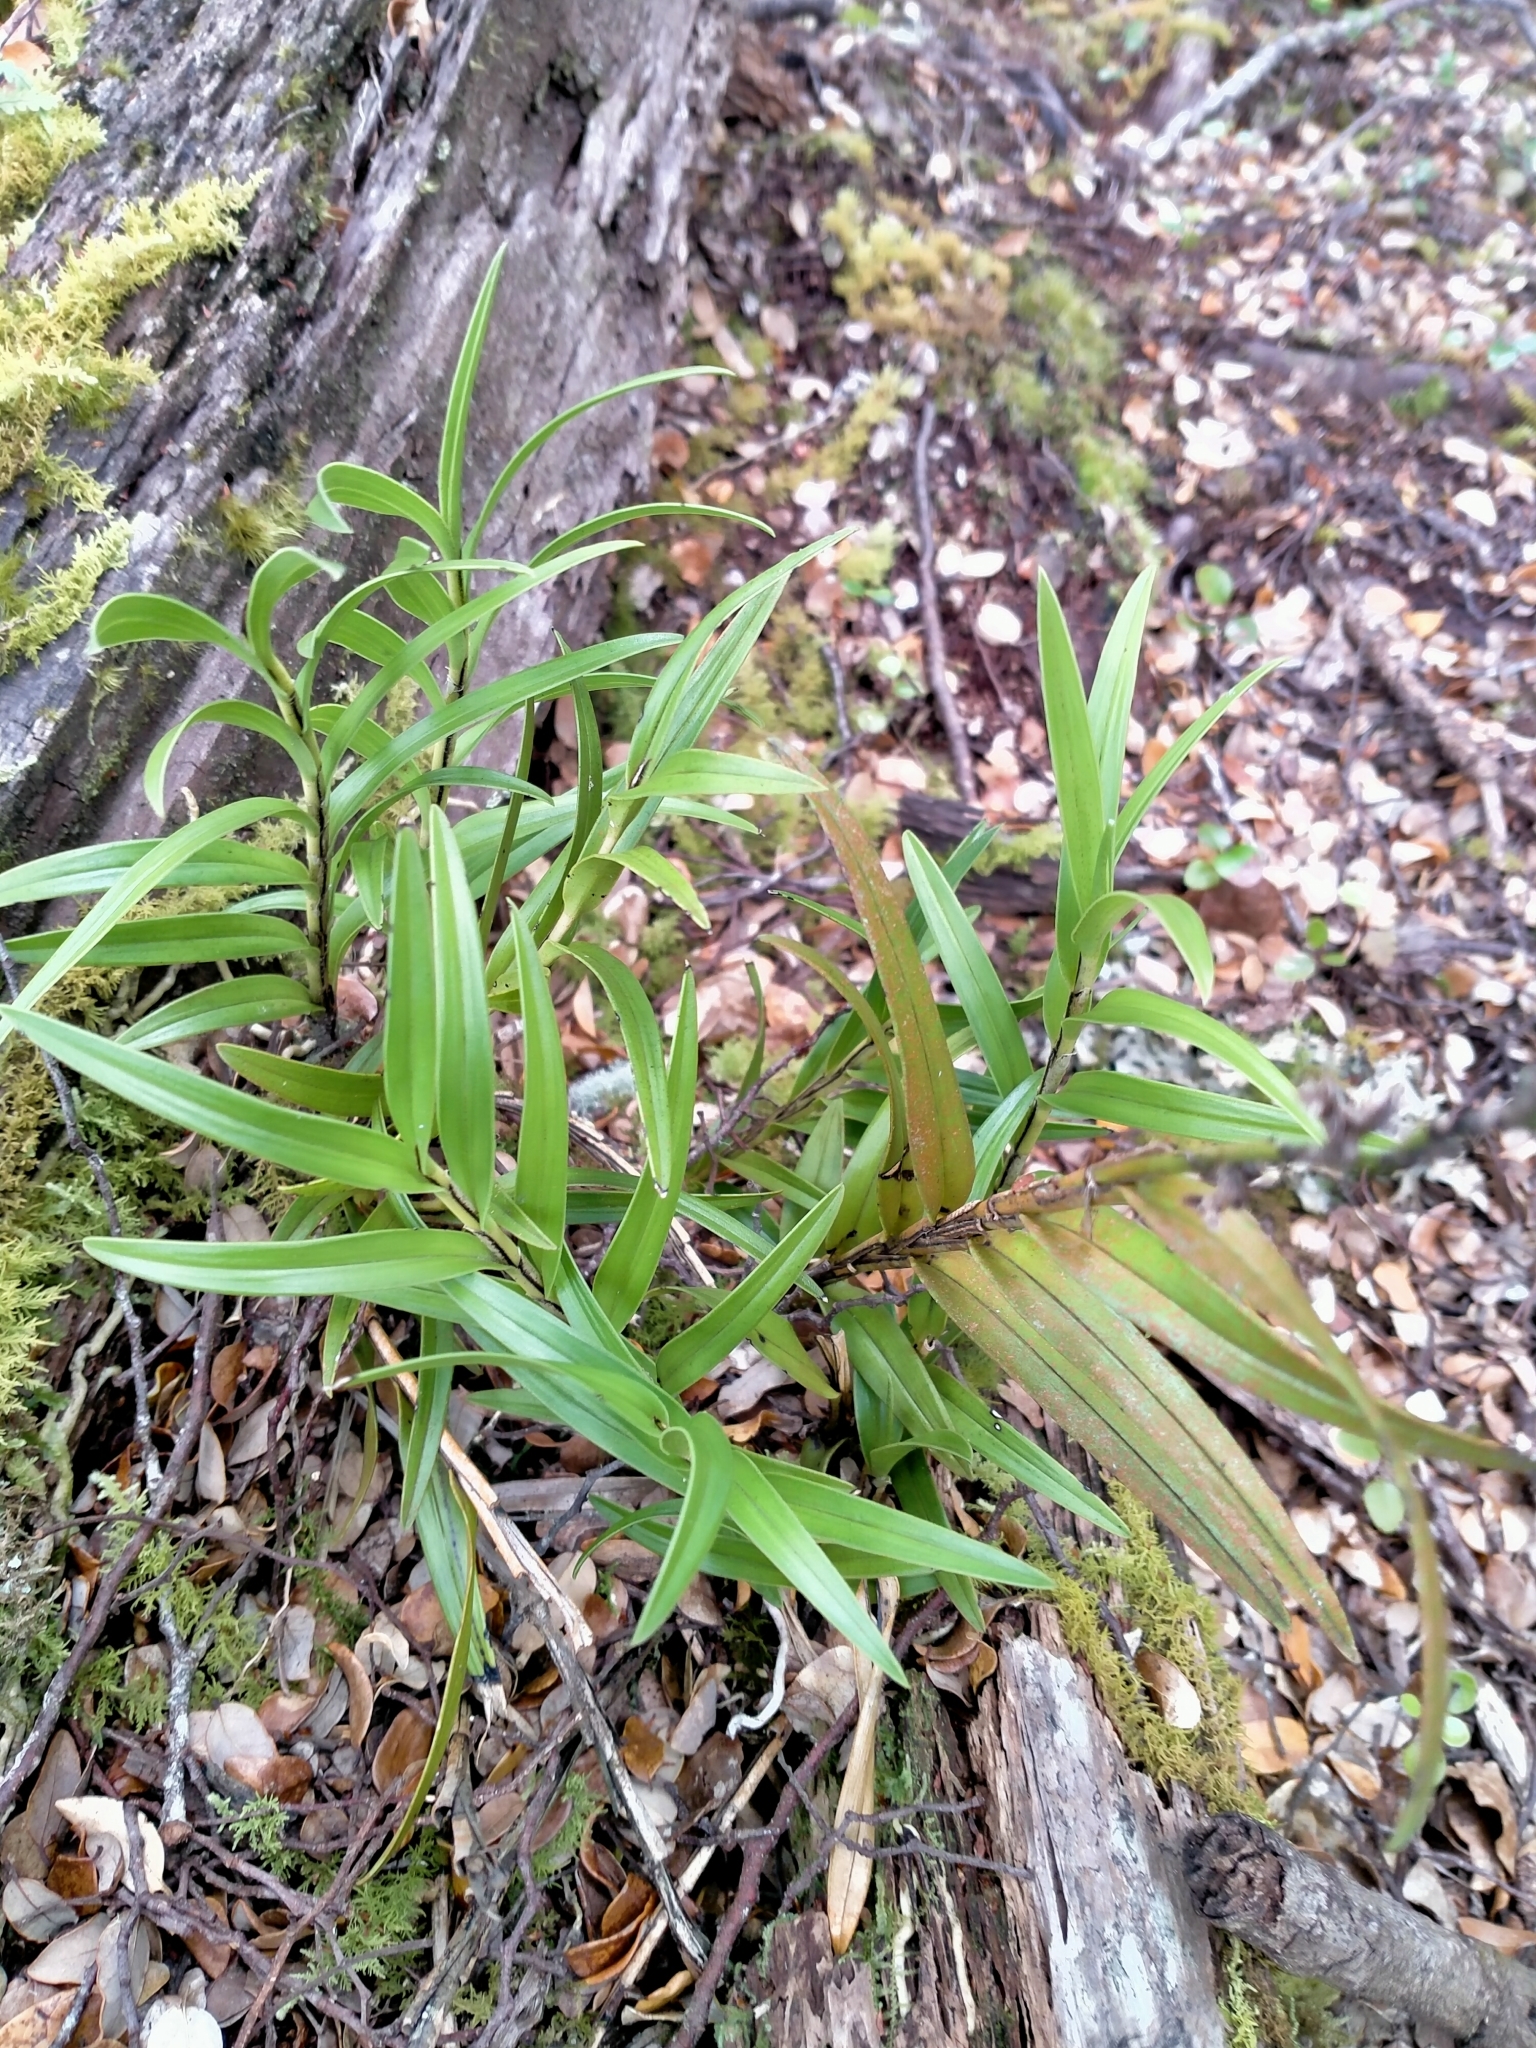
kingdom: Plantae
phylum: Tracheophyta
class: Liliopsida
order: Asparagales
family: Orchidaceae
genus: Earina
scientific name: Earina autumnalis
